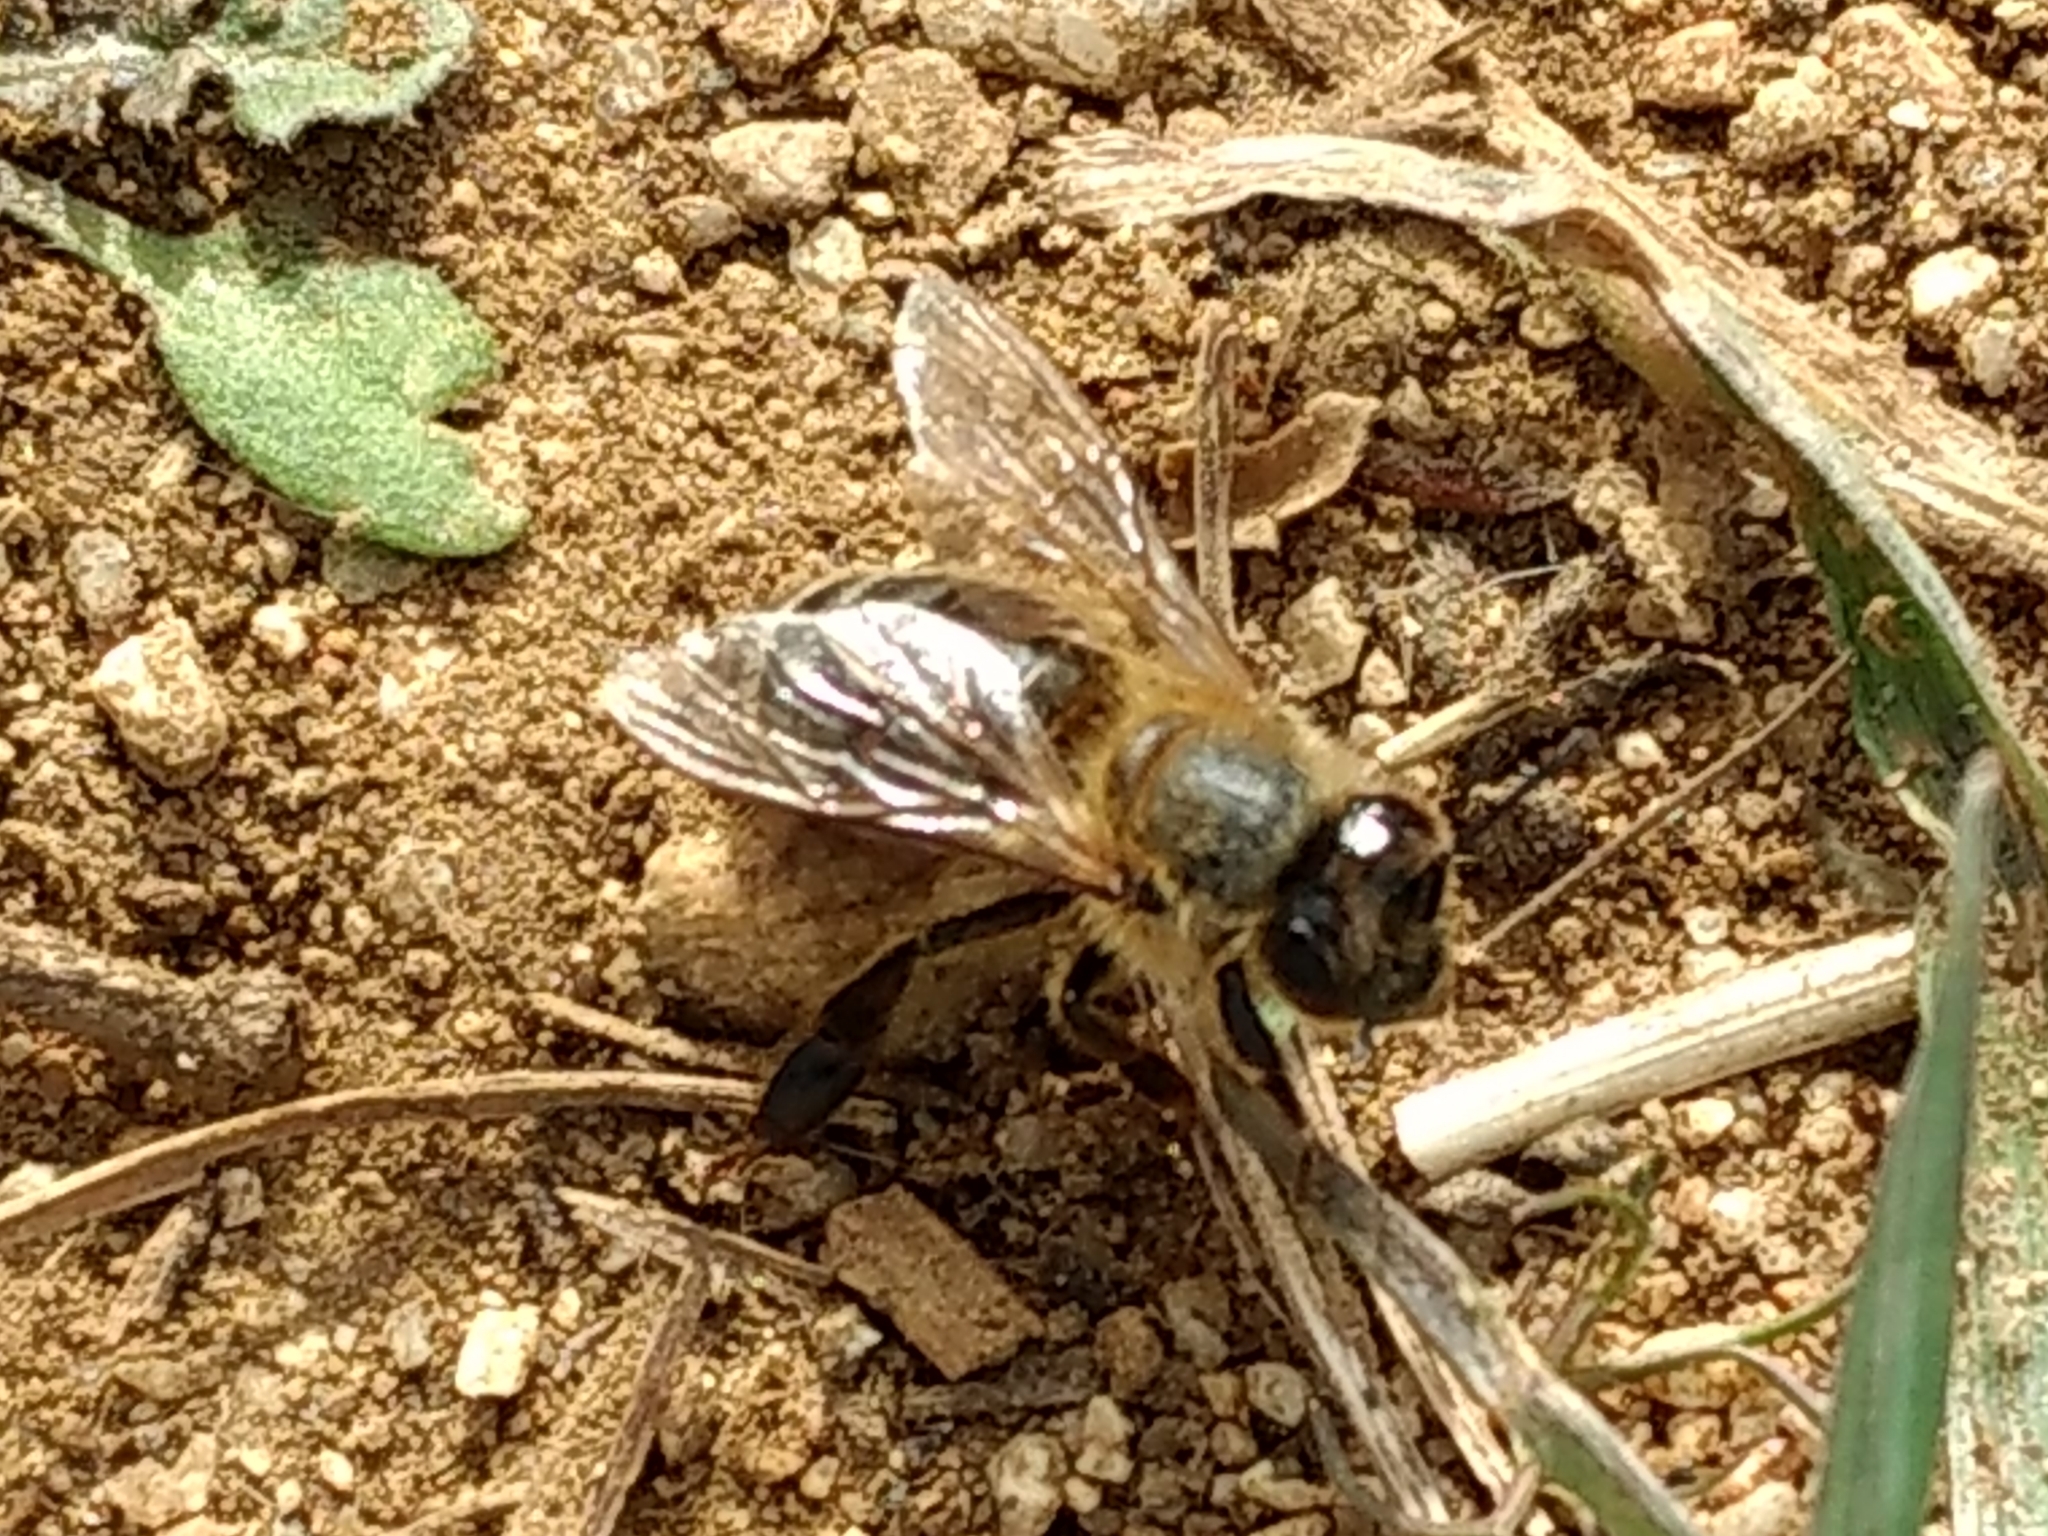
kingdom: Animalia
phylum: Arthropoda
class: Insecta
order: Hymenoptera
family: Apidae
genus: Apis
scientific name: Apis mellifera
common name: Honey bee
